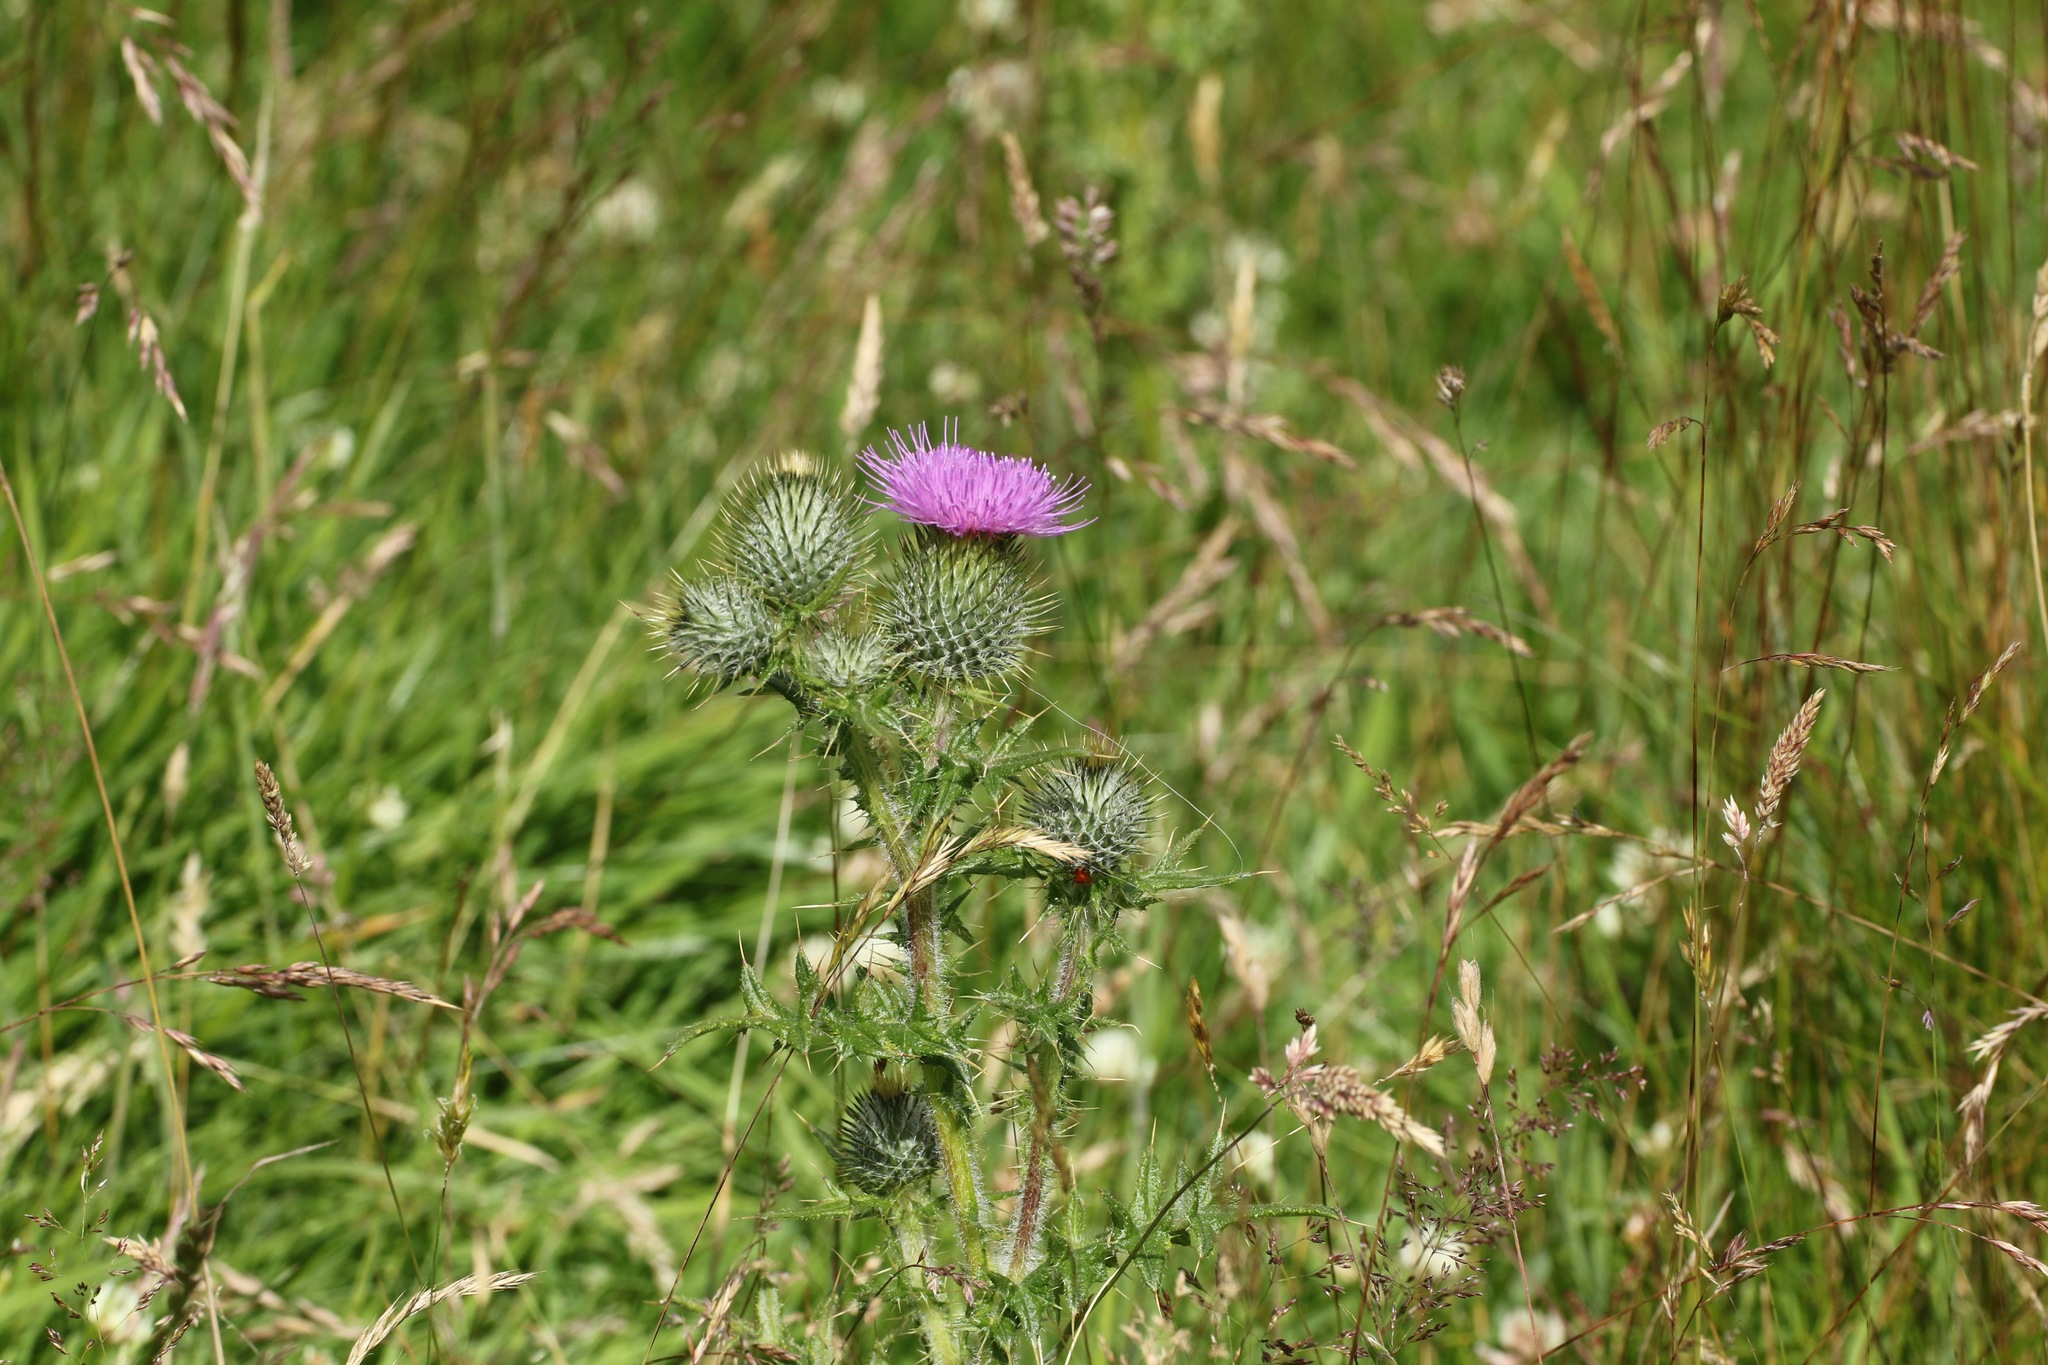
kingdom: Plantae
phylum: Tracheophyta
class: Magnoliopsida
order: Asterales
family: Asteraceae
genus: Cirsium
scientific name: Cirsium vulgare
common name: Bull thistle
